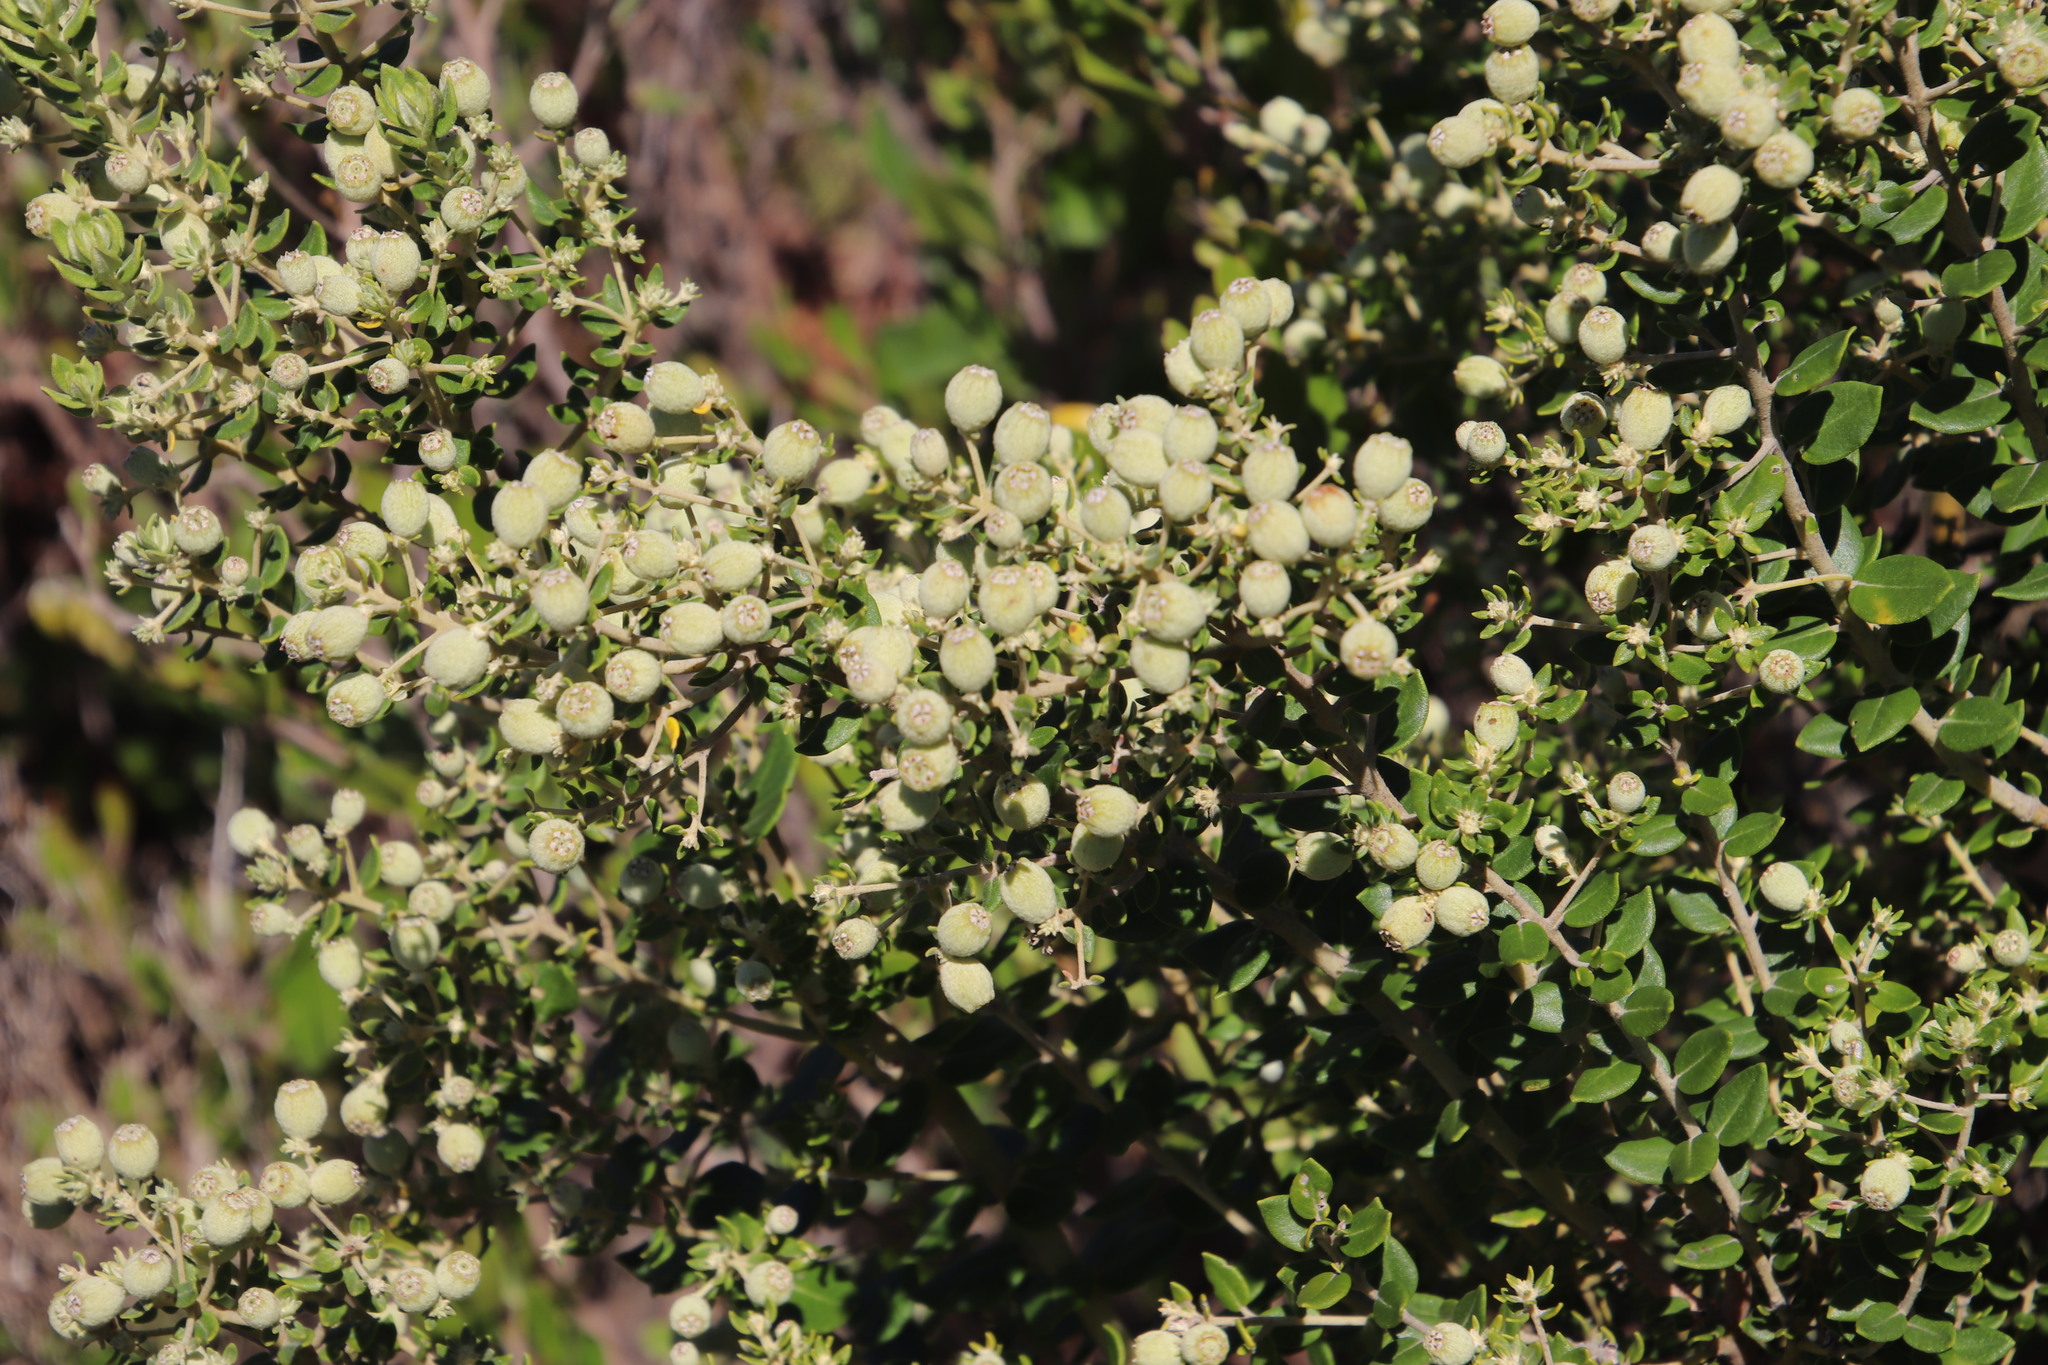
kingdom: Plantae
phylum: Tracheophyta
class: Magnoliopsida
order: Rosales
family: Rhamnaceae
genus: Phylica
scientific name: Phylica buxifolia
